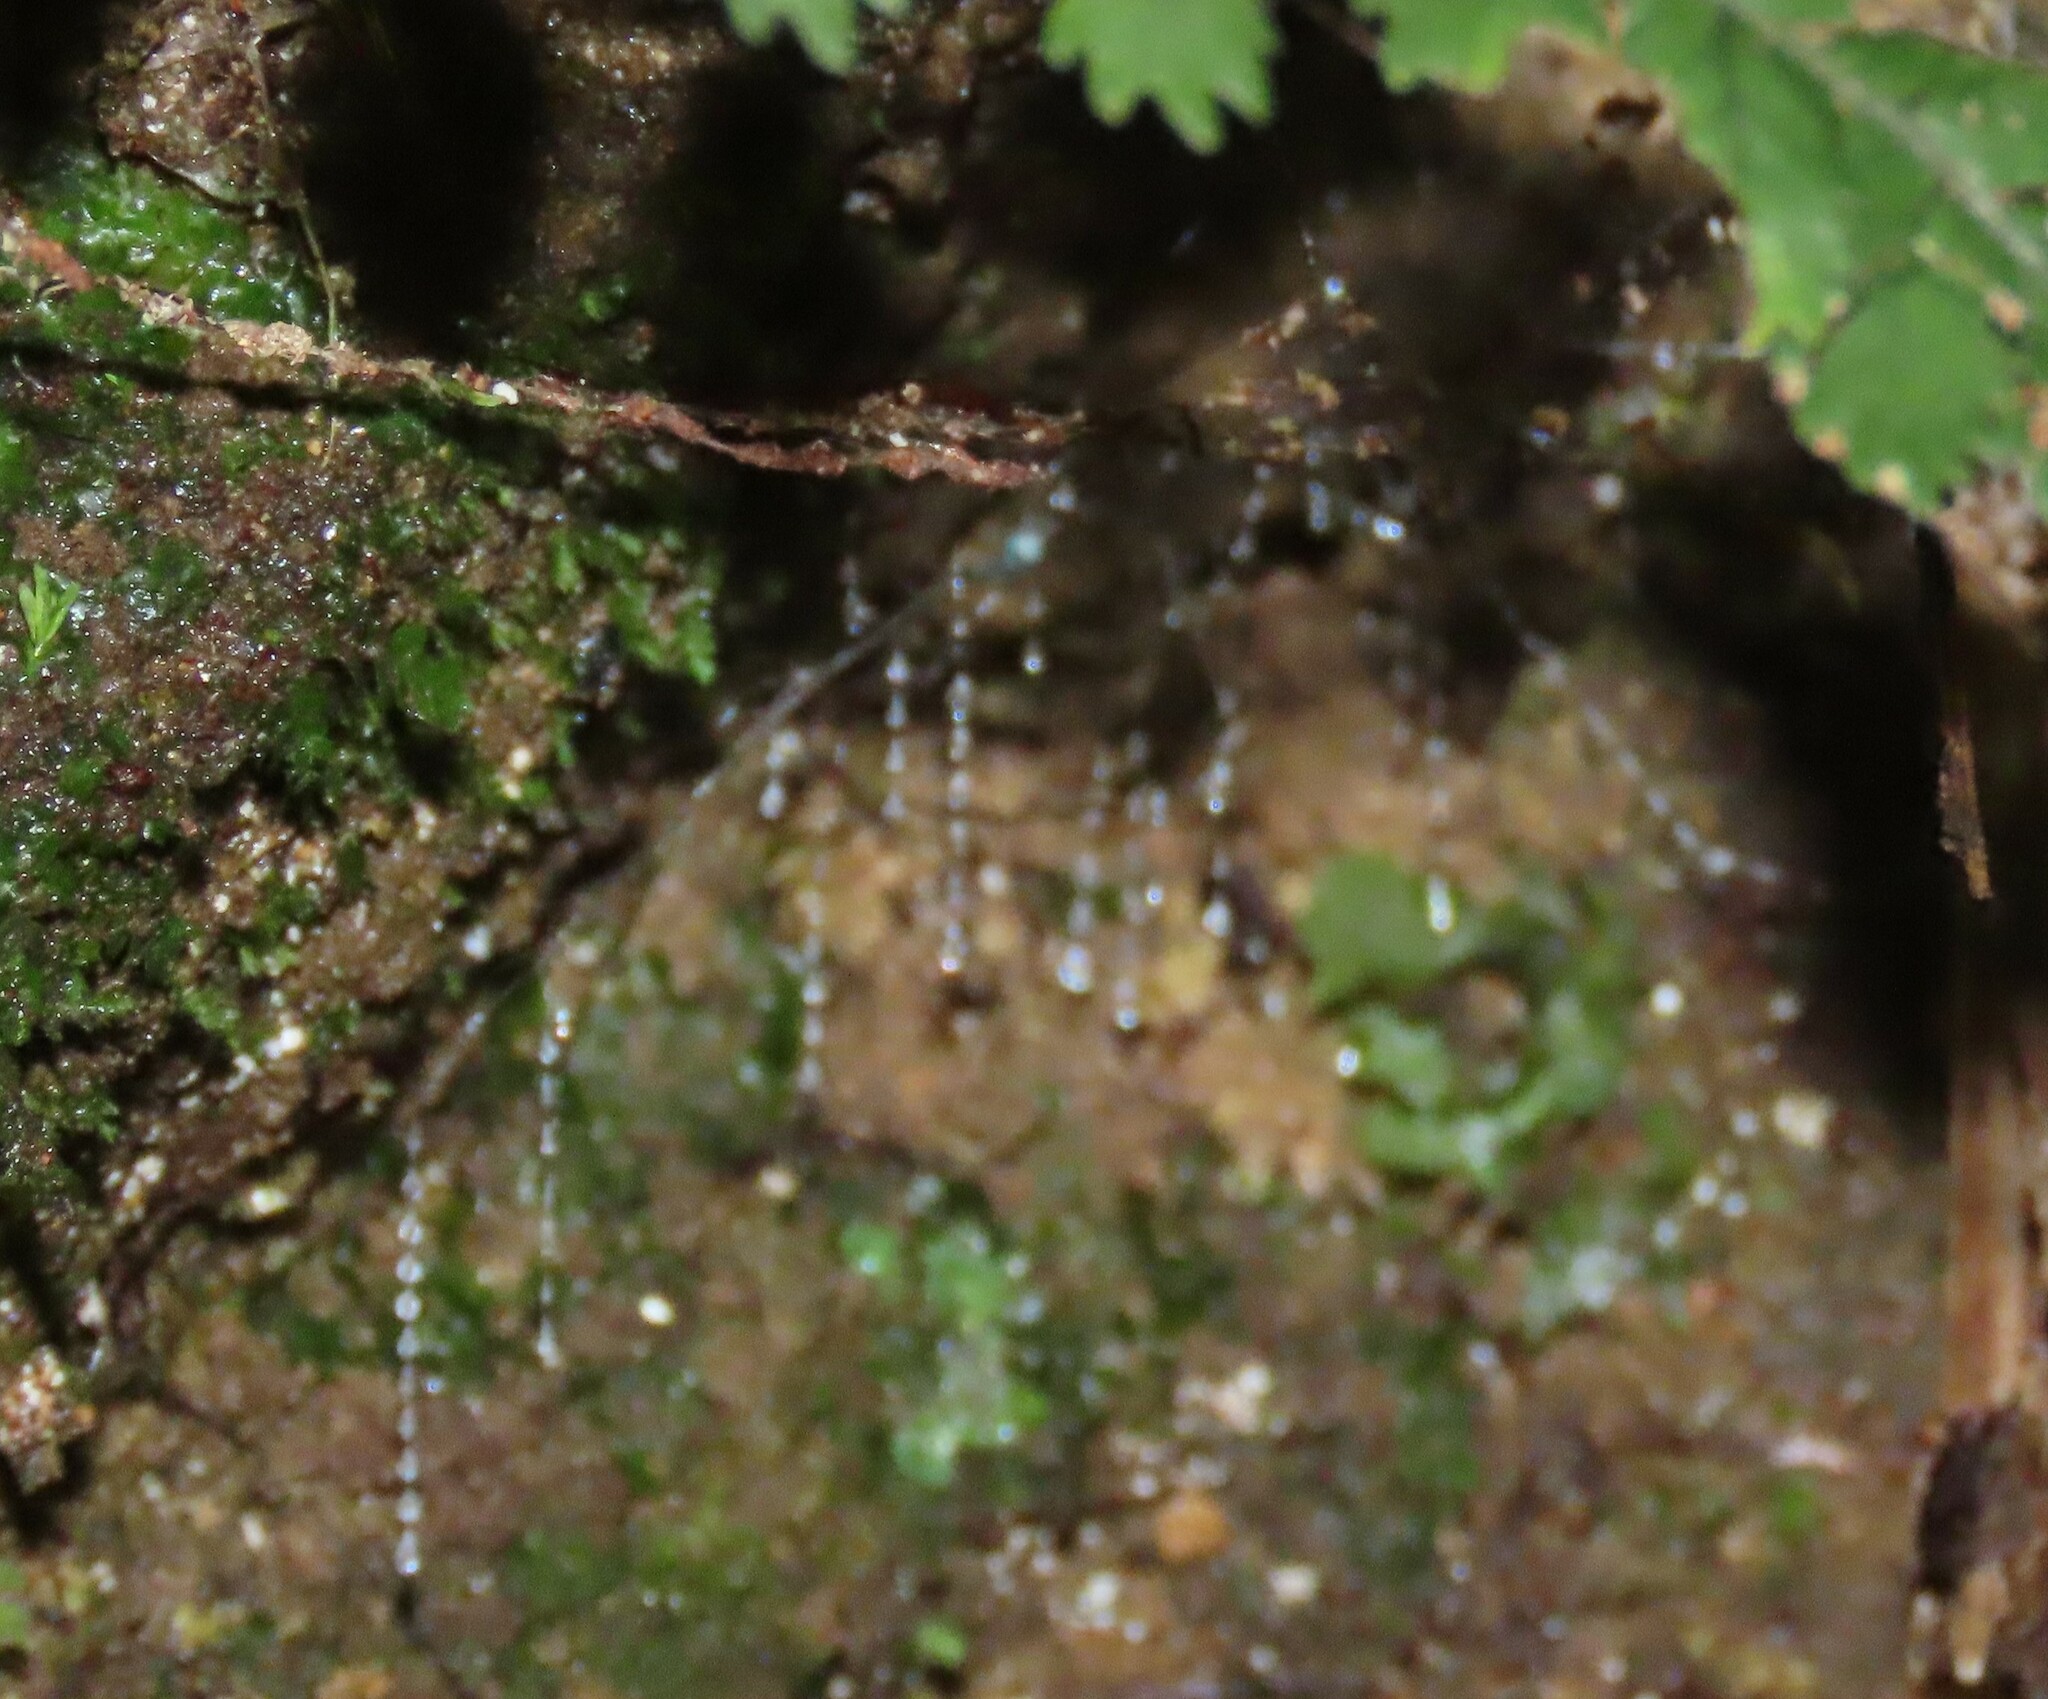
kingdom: Animalia
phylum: Arthropoda
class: Insecta
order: Diptera
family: Keroplatidae
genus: Arachnocampa
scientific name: Arachnocampa luminosa
